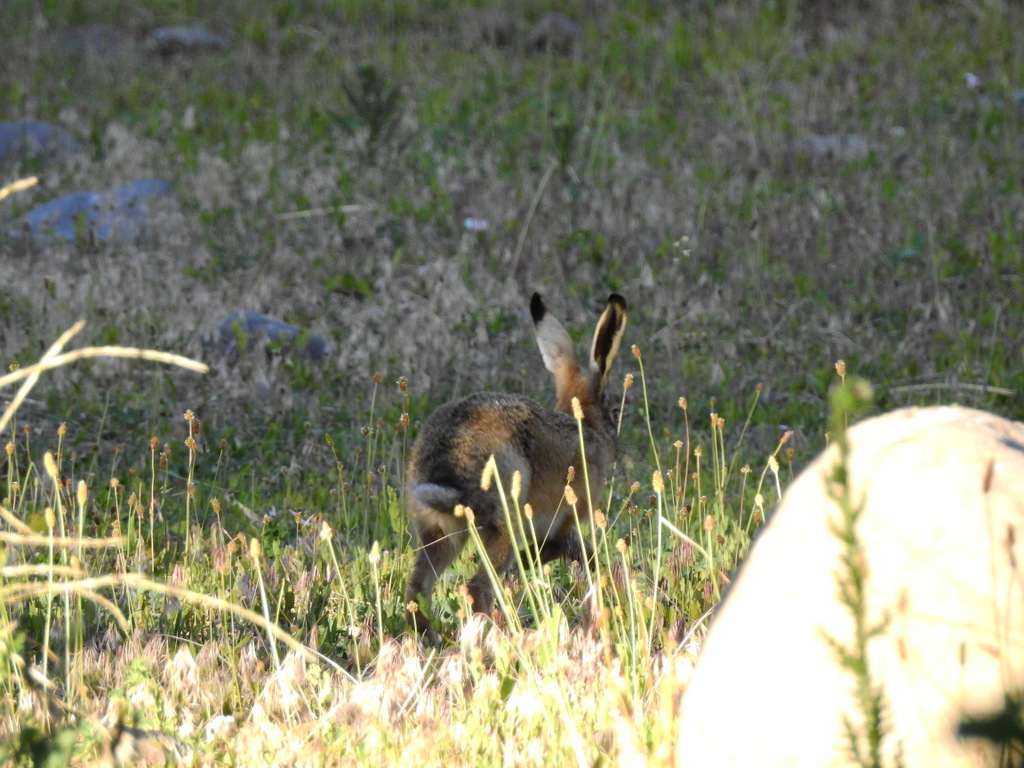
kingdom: Animalia
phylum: Chordata
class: Mammalia
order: Lagomorpha
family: Leporidae
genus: Lepus
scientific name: Lepus europaeus
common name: European hare
